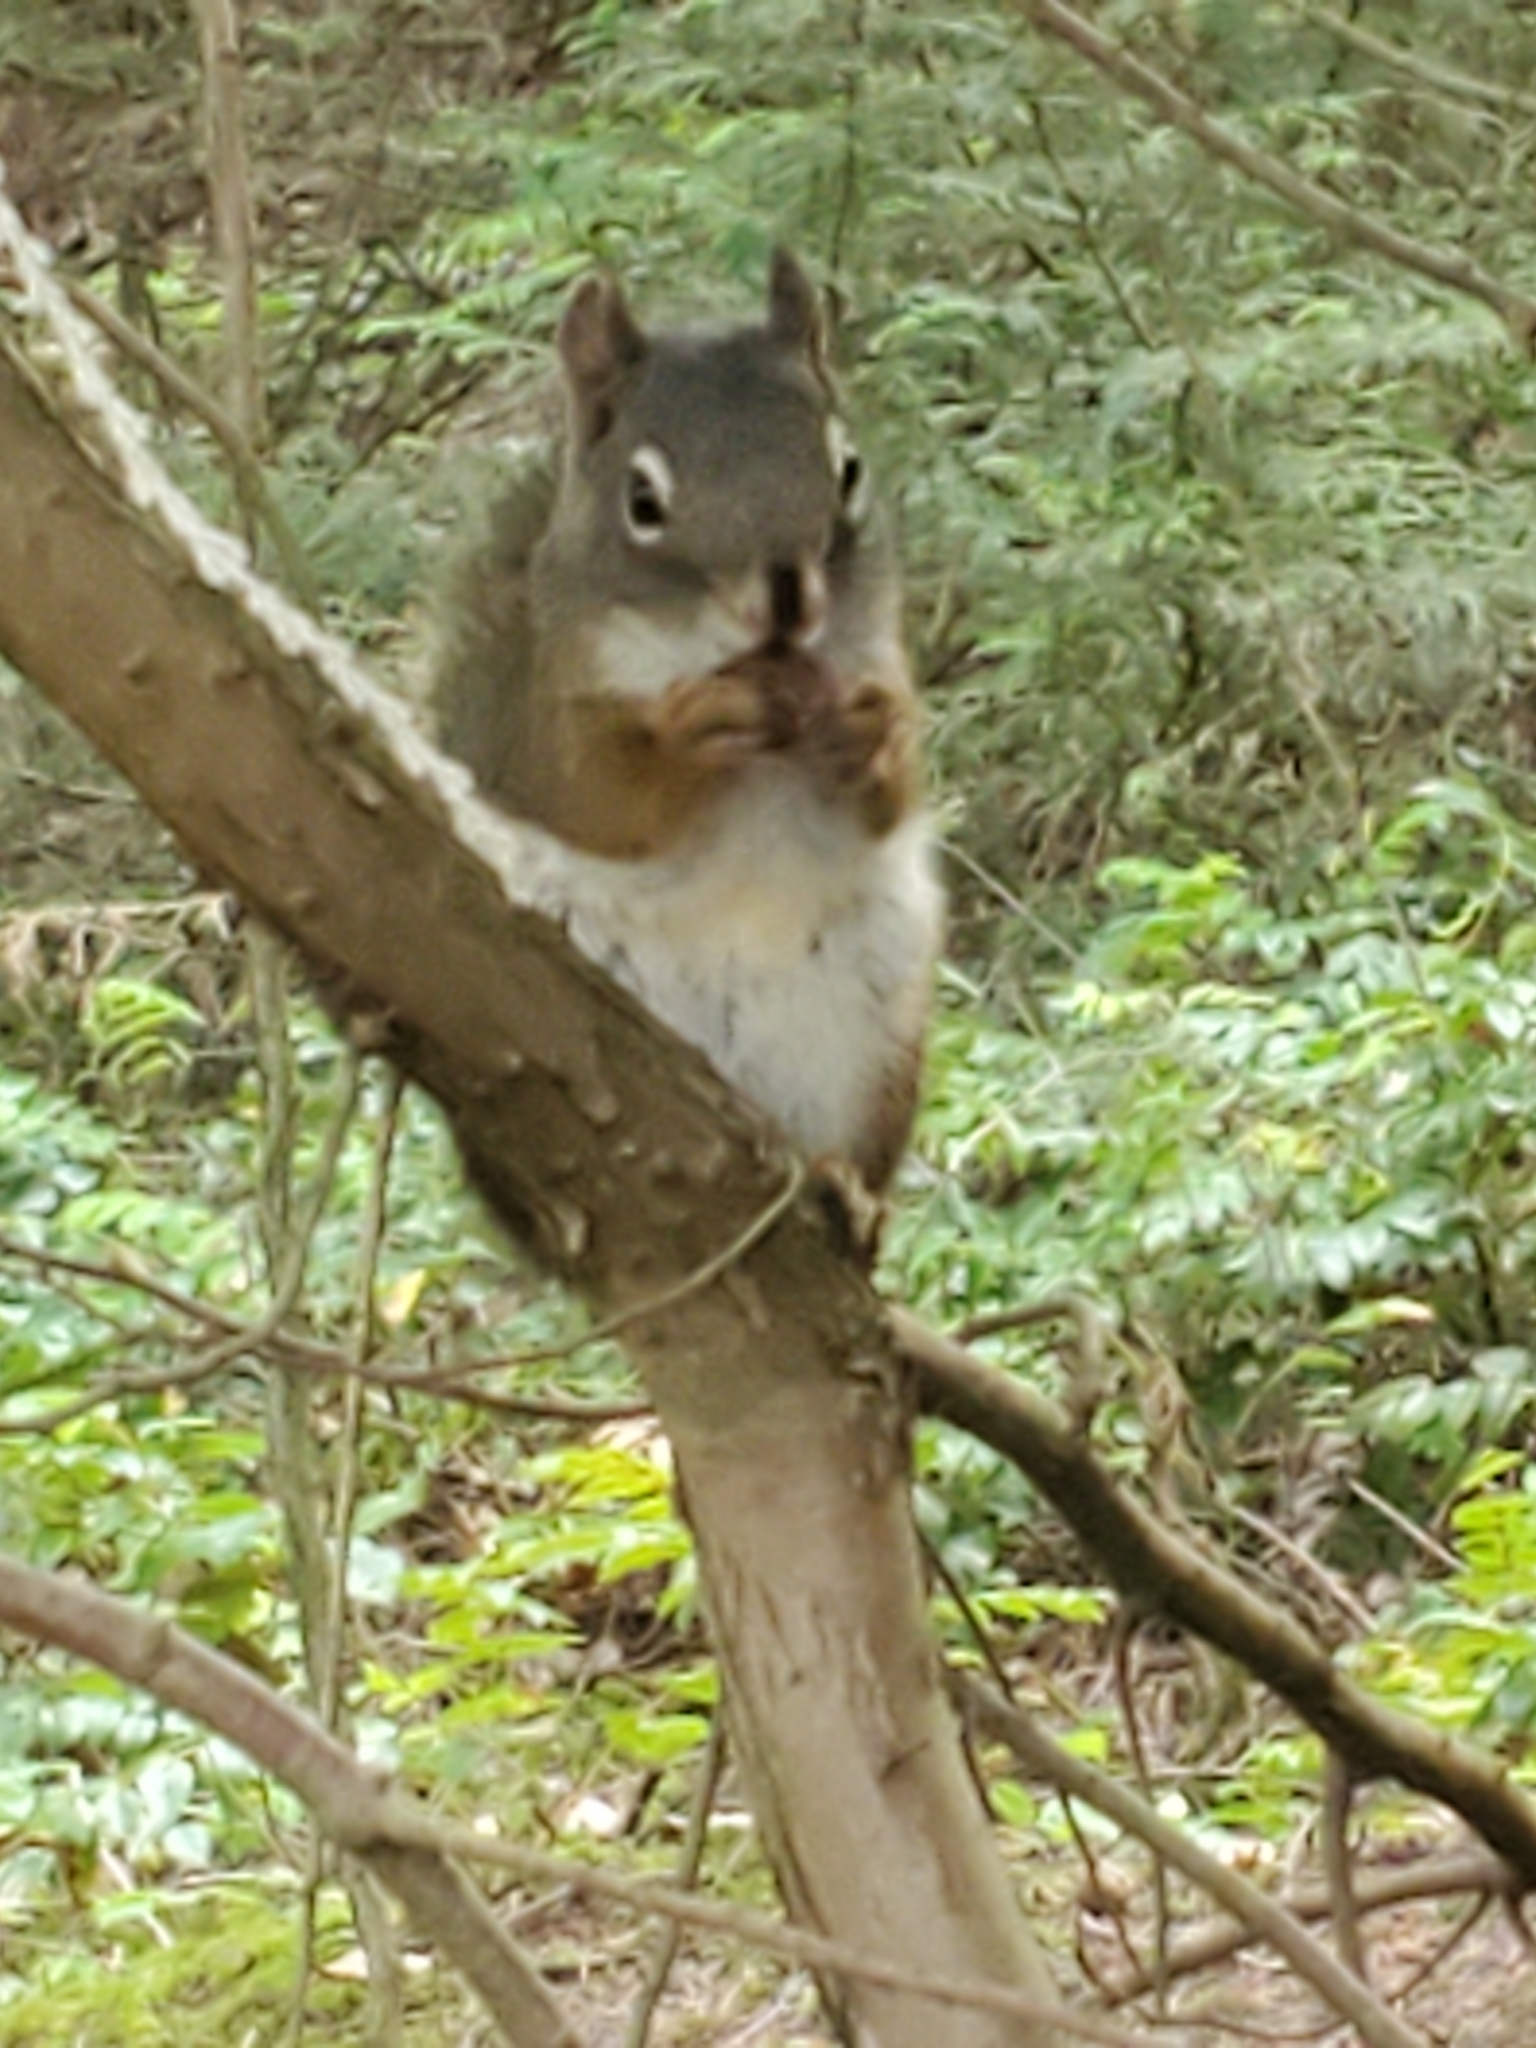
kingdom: Animalia
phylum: Chordata
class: Mammalia
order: Rodentia
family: Sciuridae
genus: Tamiasciurus
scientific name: Tamiasciurus hudsonicus
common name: Red squirrel
